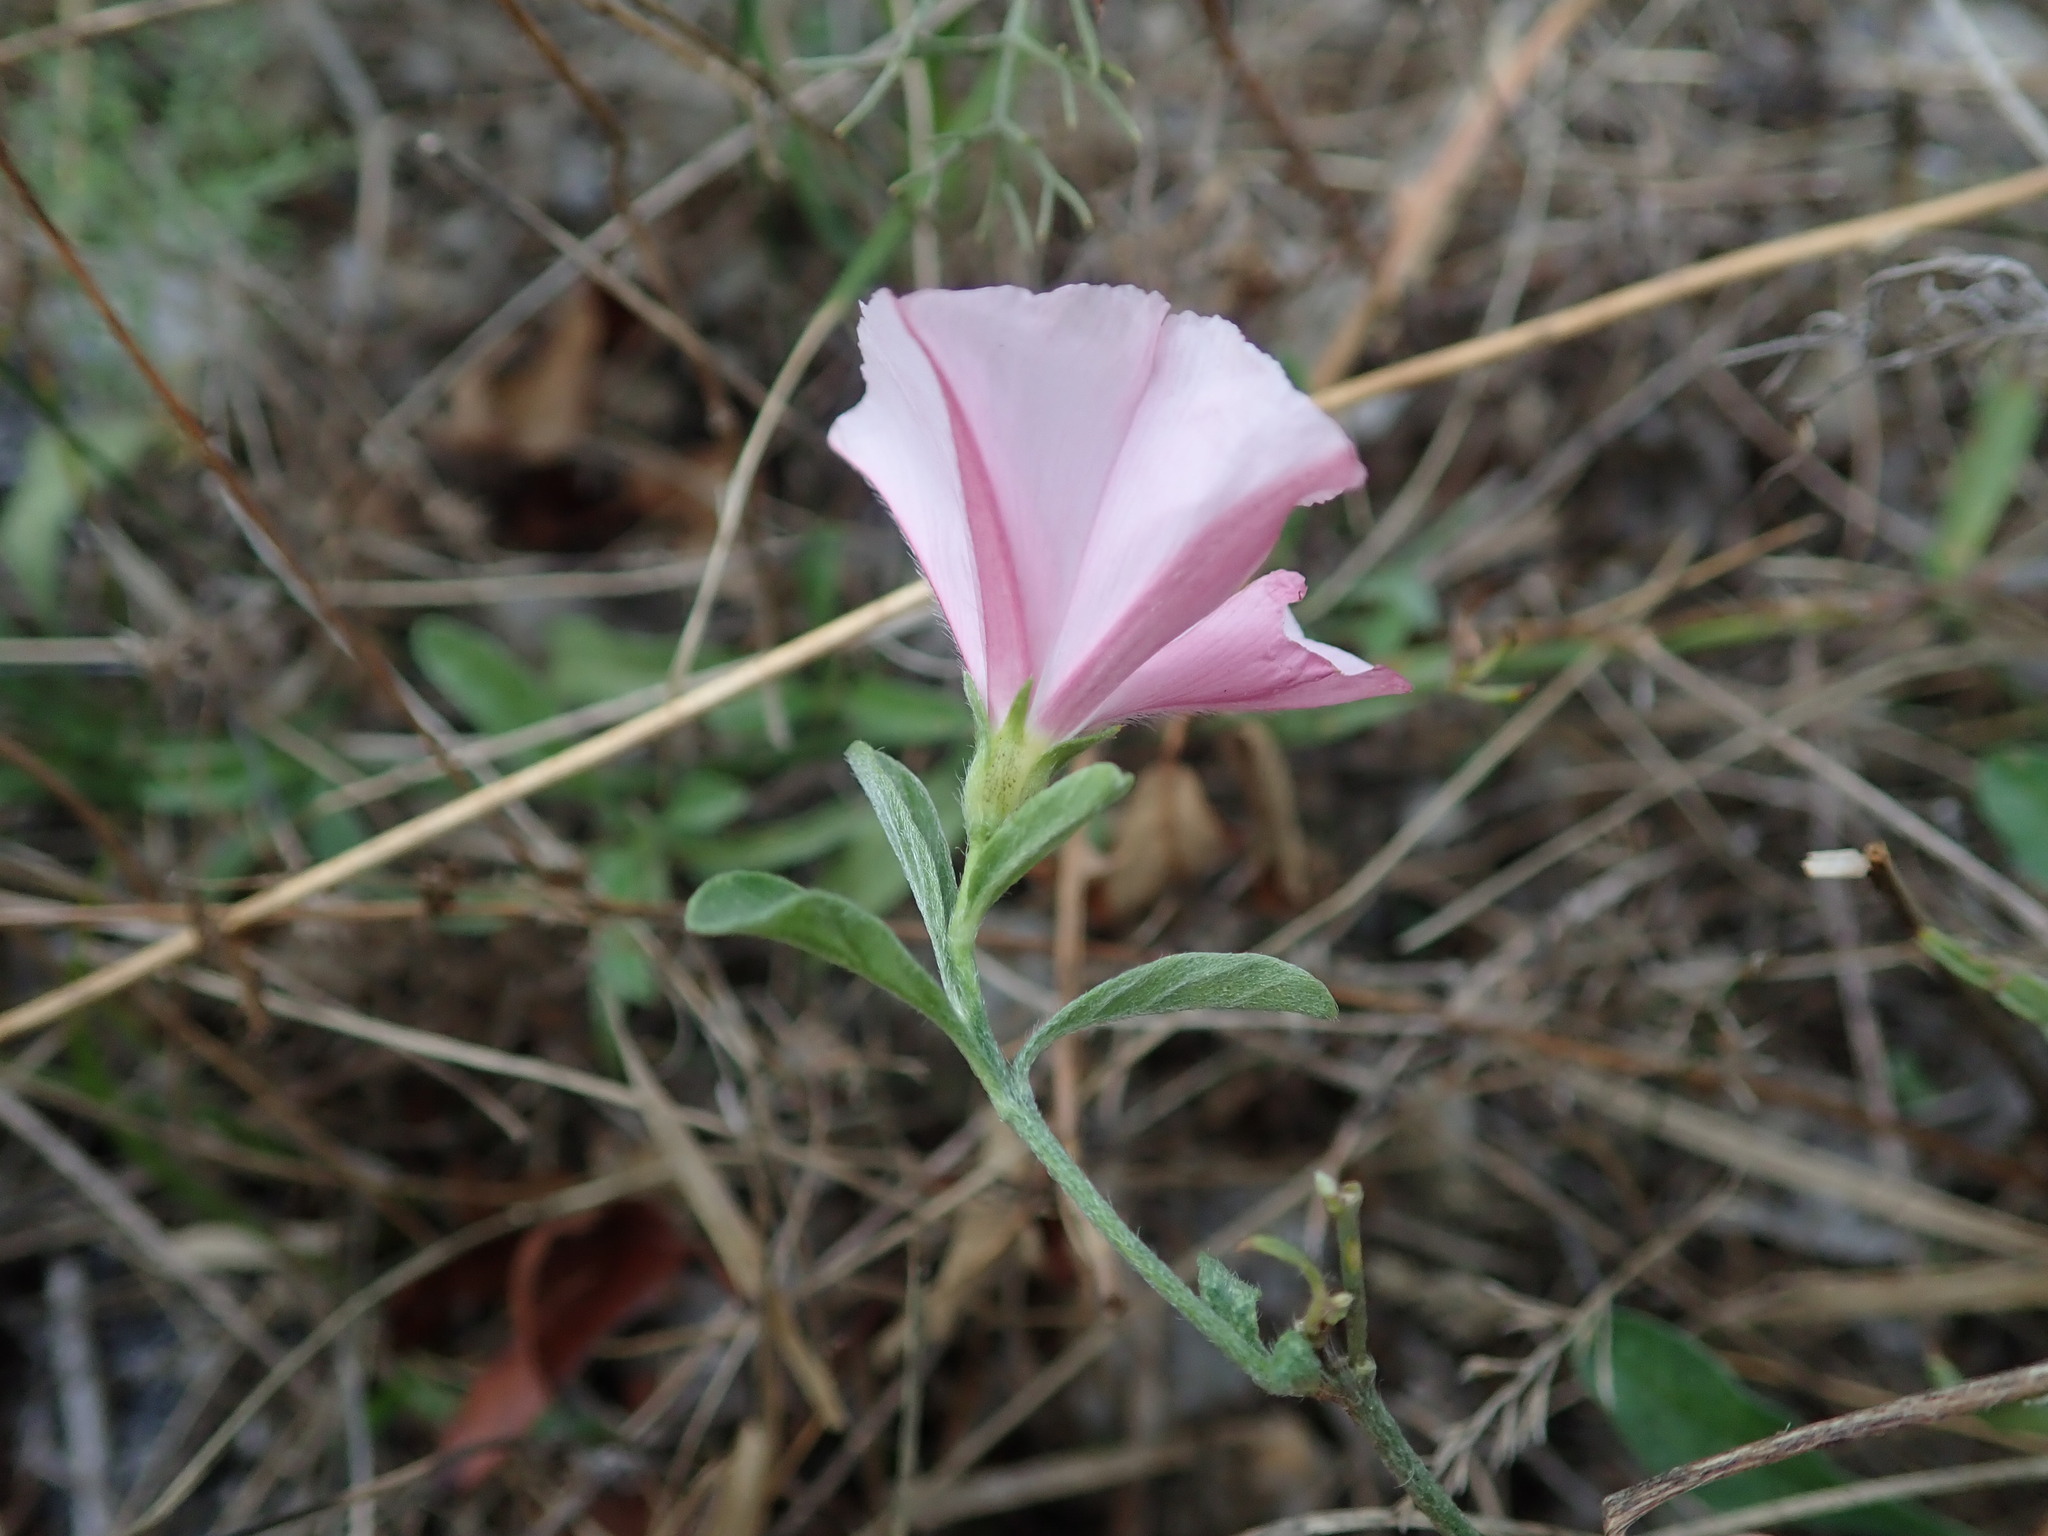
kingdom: Plantae
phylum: Tracheophyta
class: Magnoliopsida
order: Solanales
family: Convolvulaceae
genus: Convolvulus
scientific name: Convolvulus cantabrica
